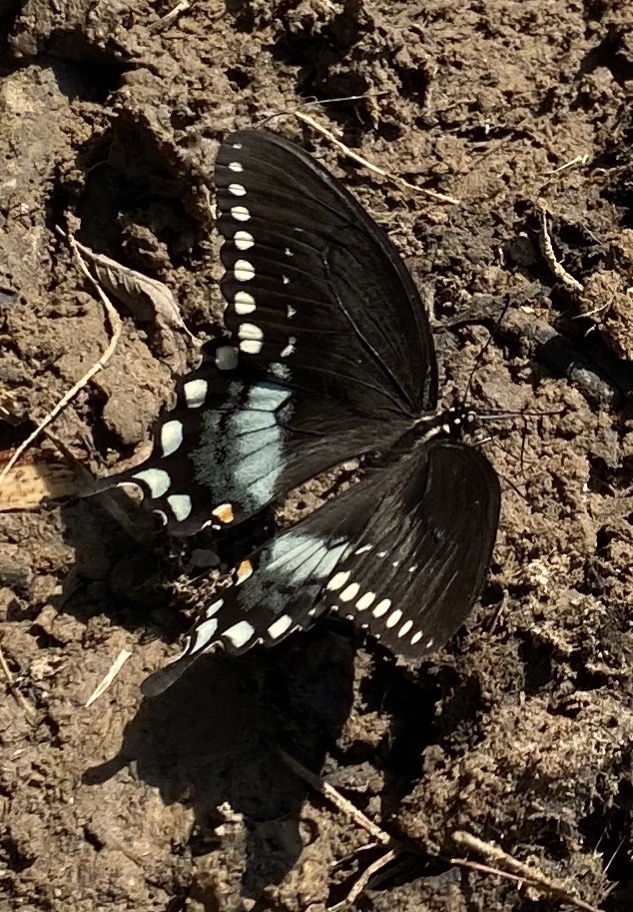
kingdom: Animalia
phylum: Arthropoda
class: Insecta
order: Lepidoptera
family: Papilionidae
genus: Papilio
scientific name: Papilio troilus
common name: Spicebush swallowtail
